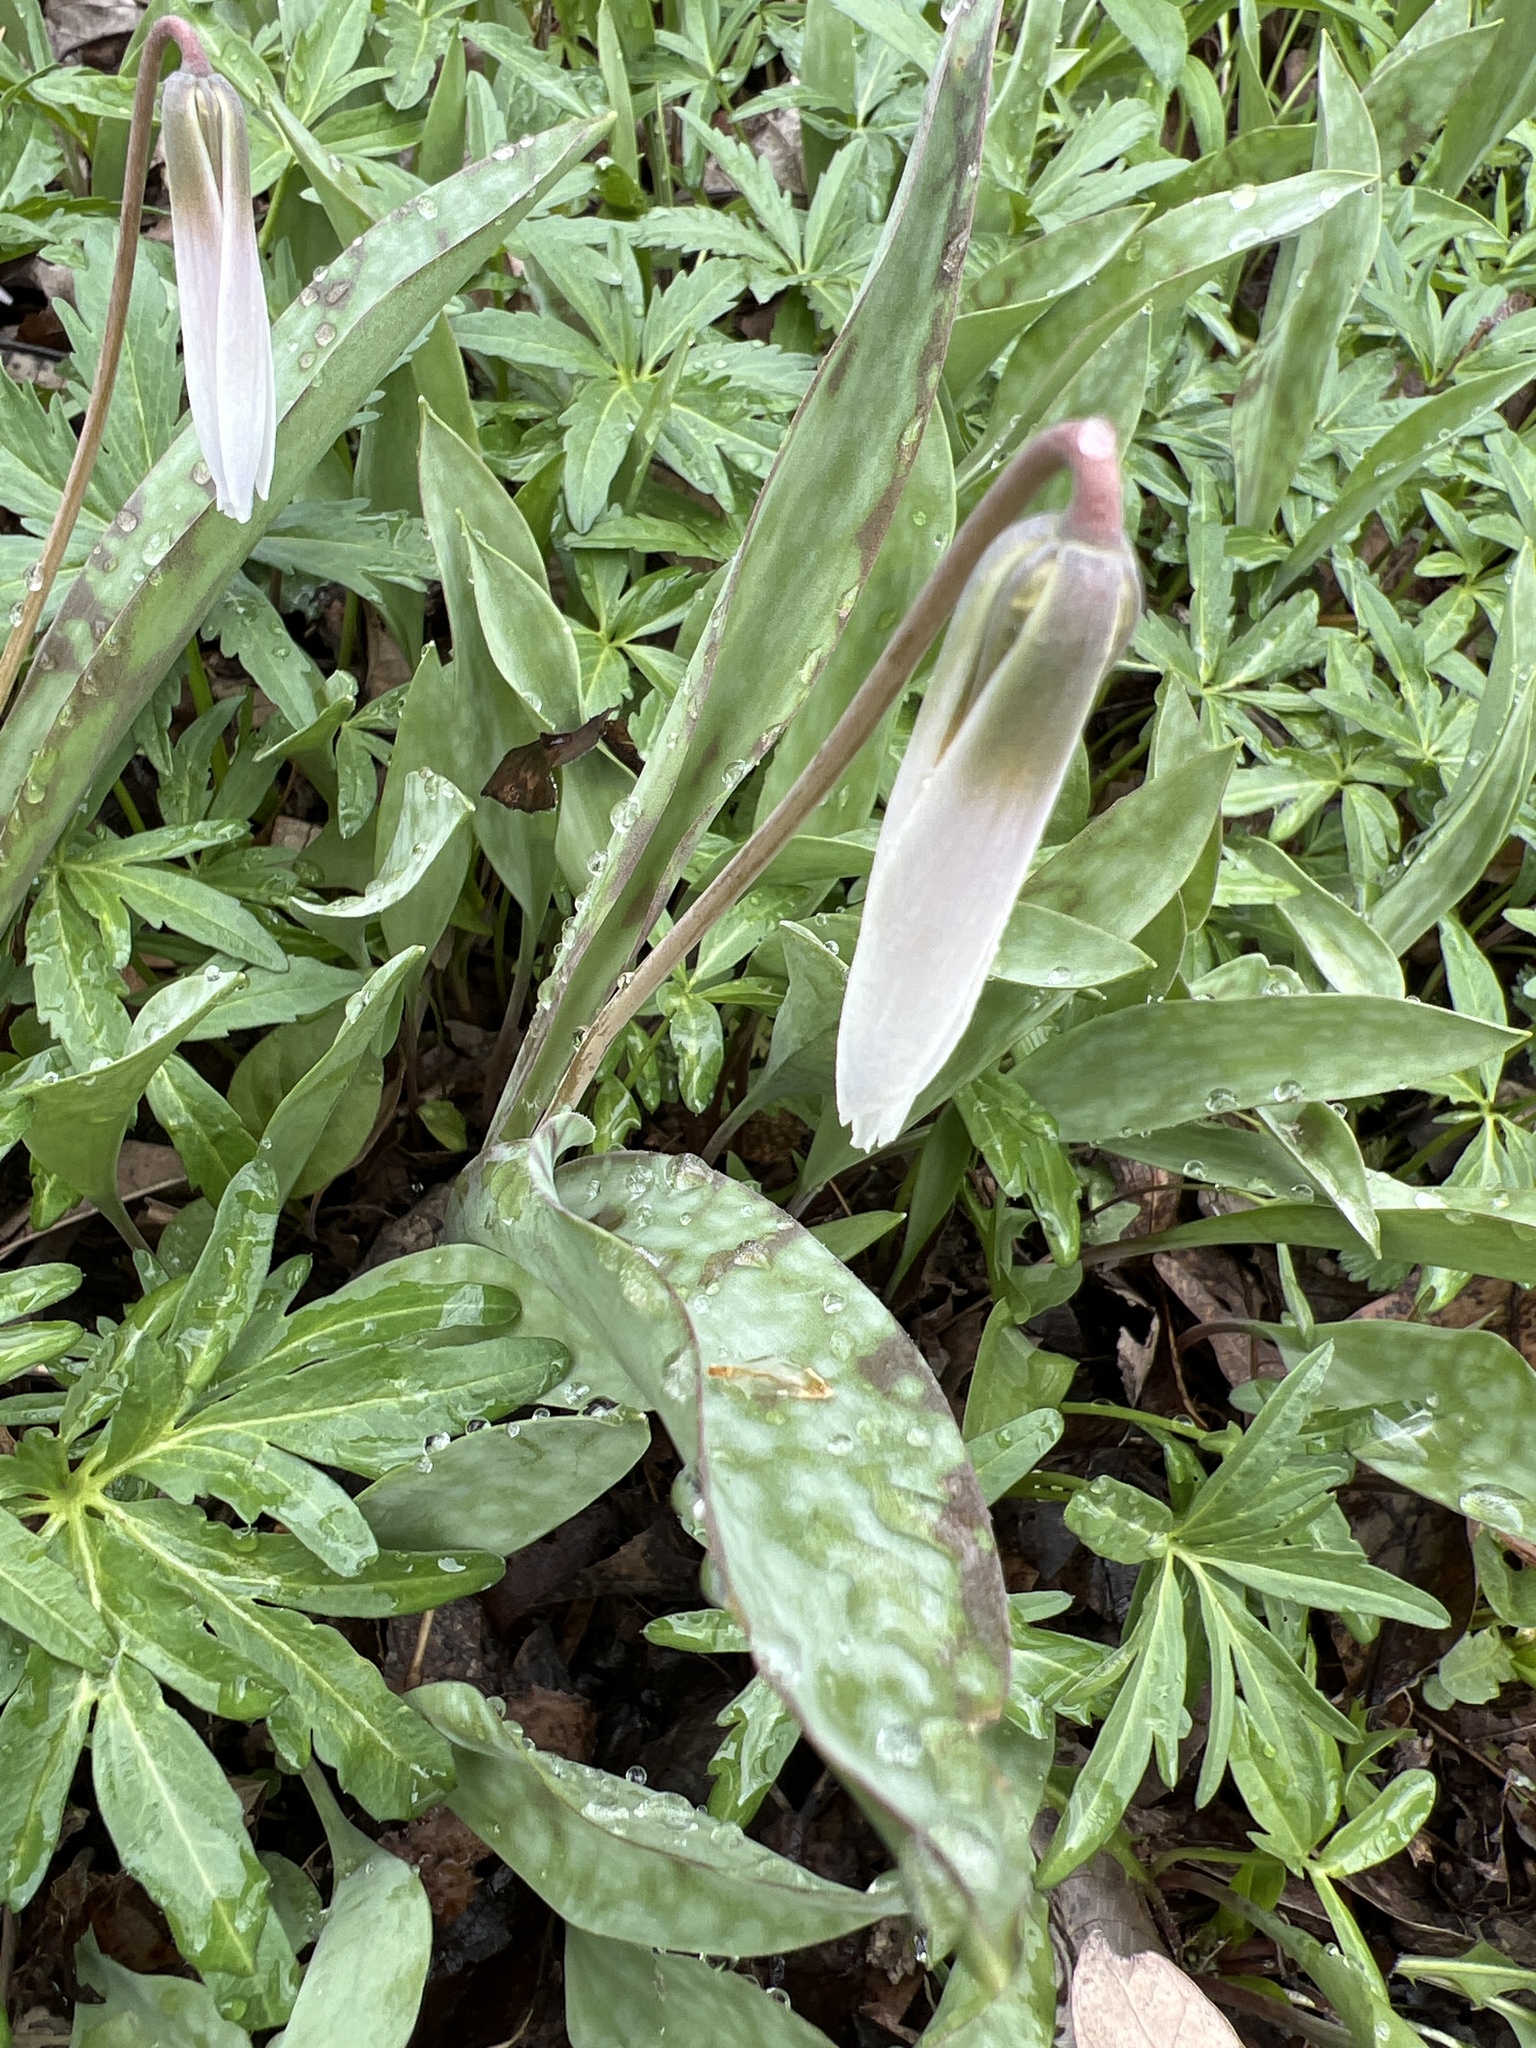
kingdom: Plantae
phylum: Tracheophyta
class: Liliopsida
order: Liliales
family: Liliaceae
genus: Erythronium
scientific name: Erythronium albidum
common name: White trout-lily
